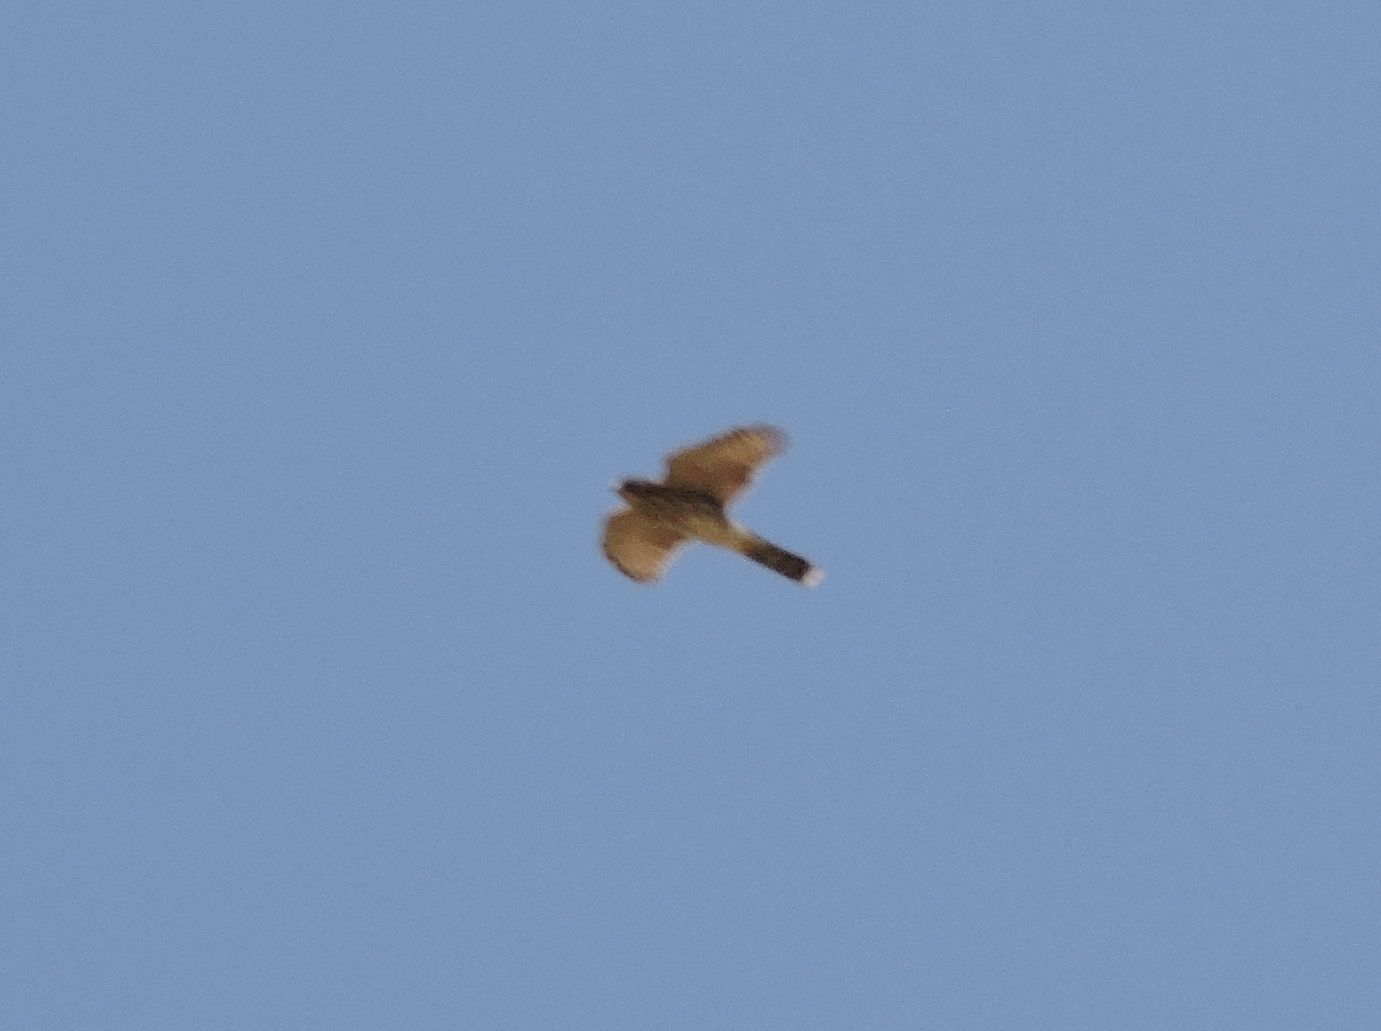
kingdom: Animalia
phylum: Chordata
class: Aves
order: Accipitriformes
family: Accipitridae
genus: Accipiter
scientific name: Accipiter cooperii
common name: Cooper's hawk
